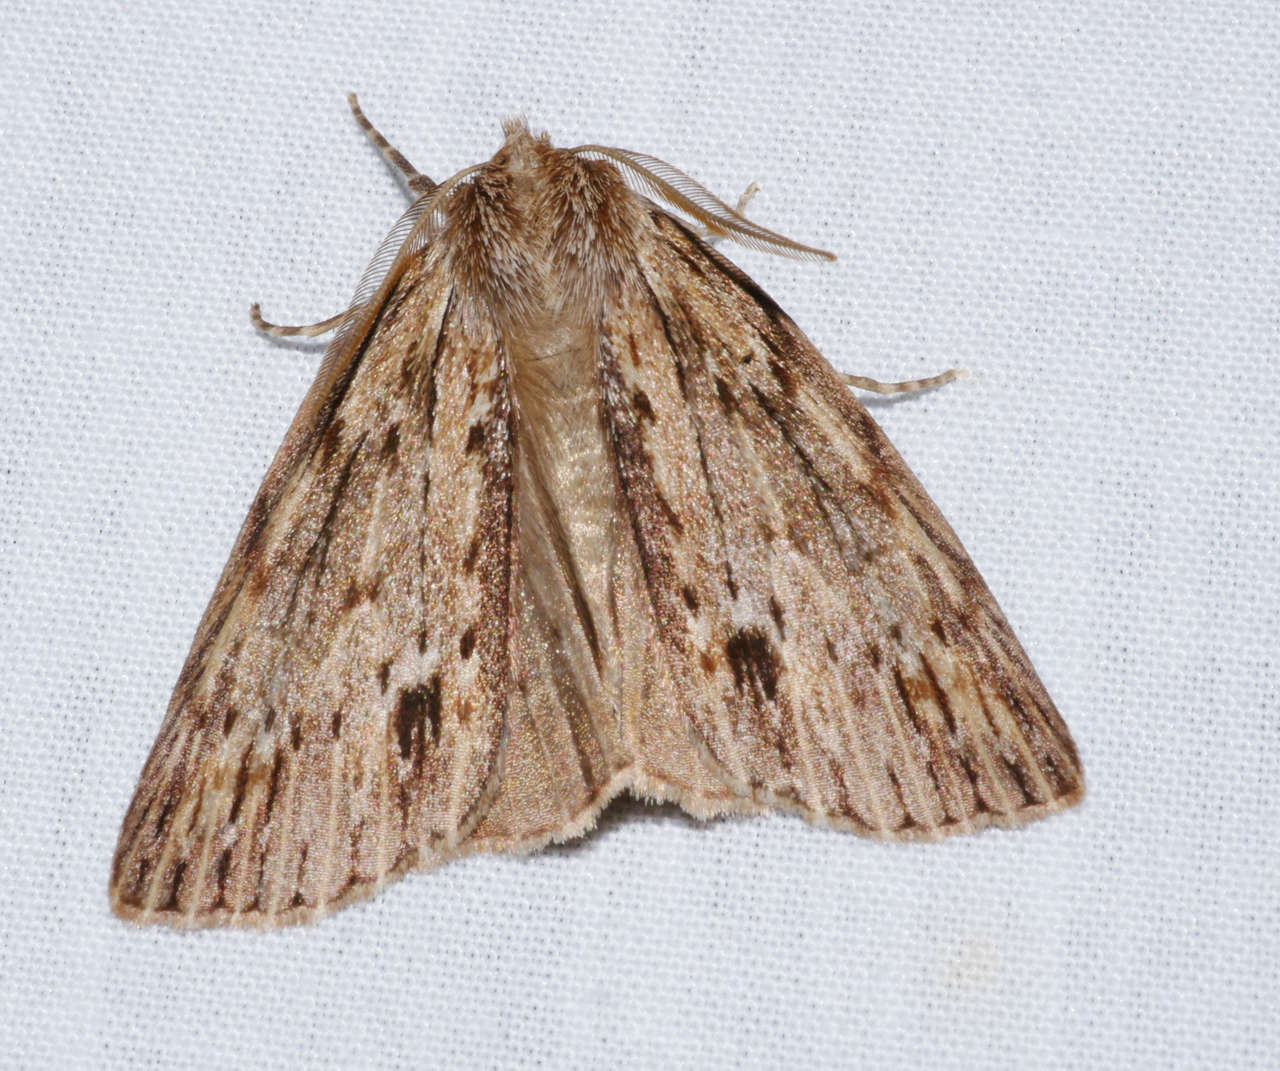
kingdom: Animalia
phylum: Arthropoda
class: Insecta
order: Lepidoptera
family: Geometridae
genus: Chlenias
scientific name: Chlenias banksiaria
